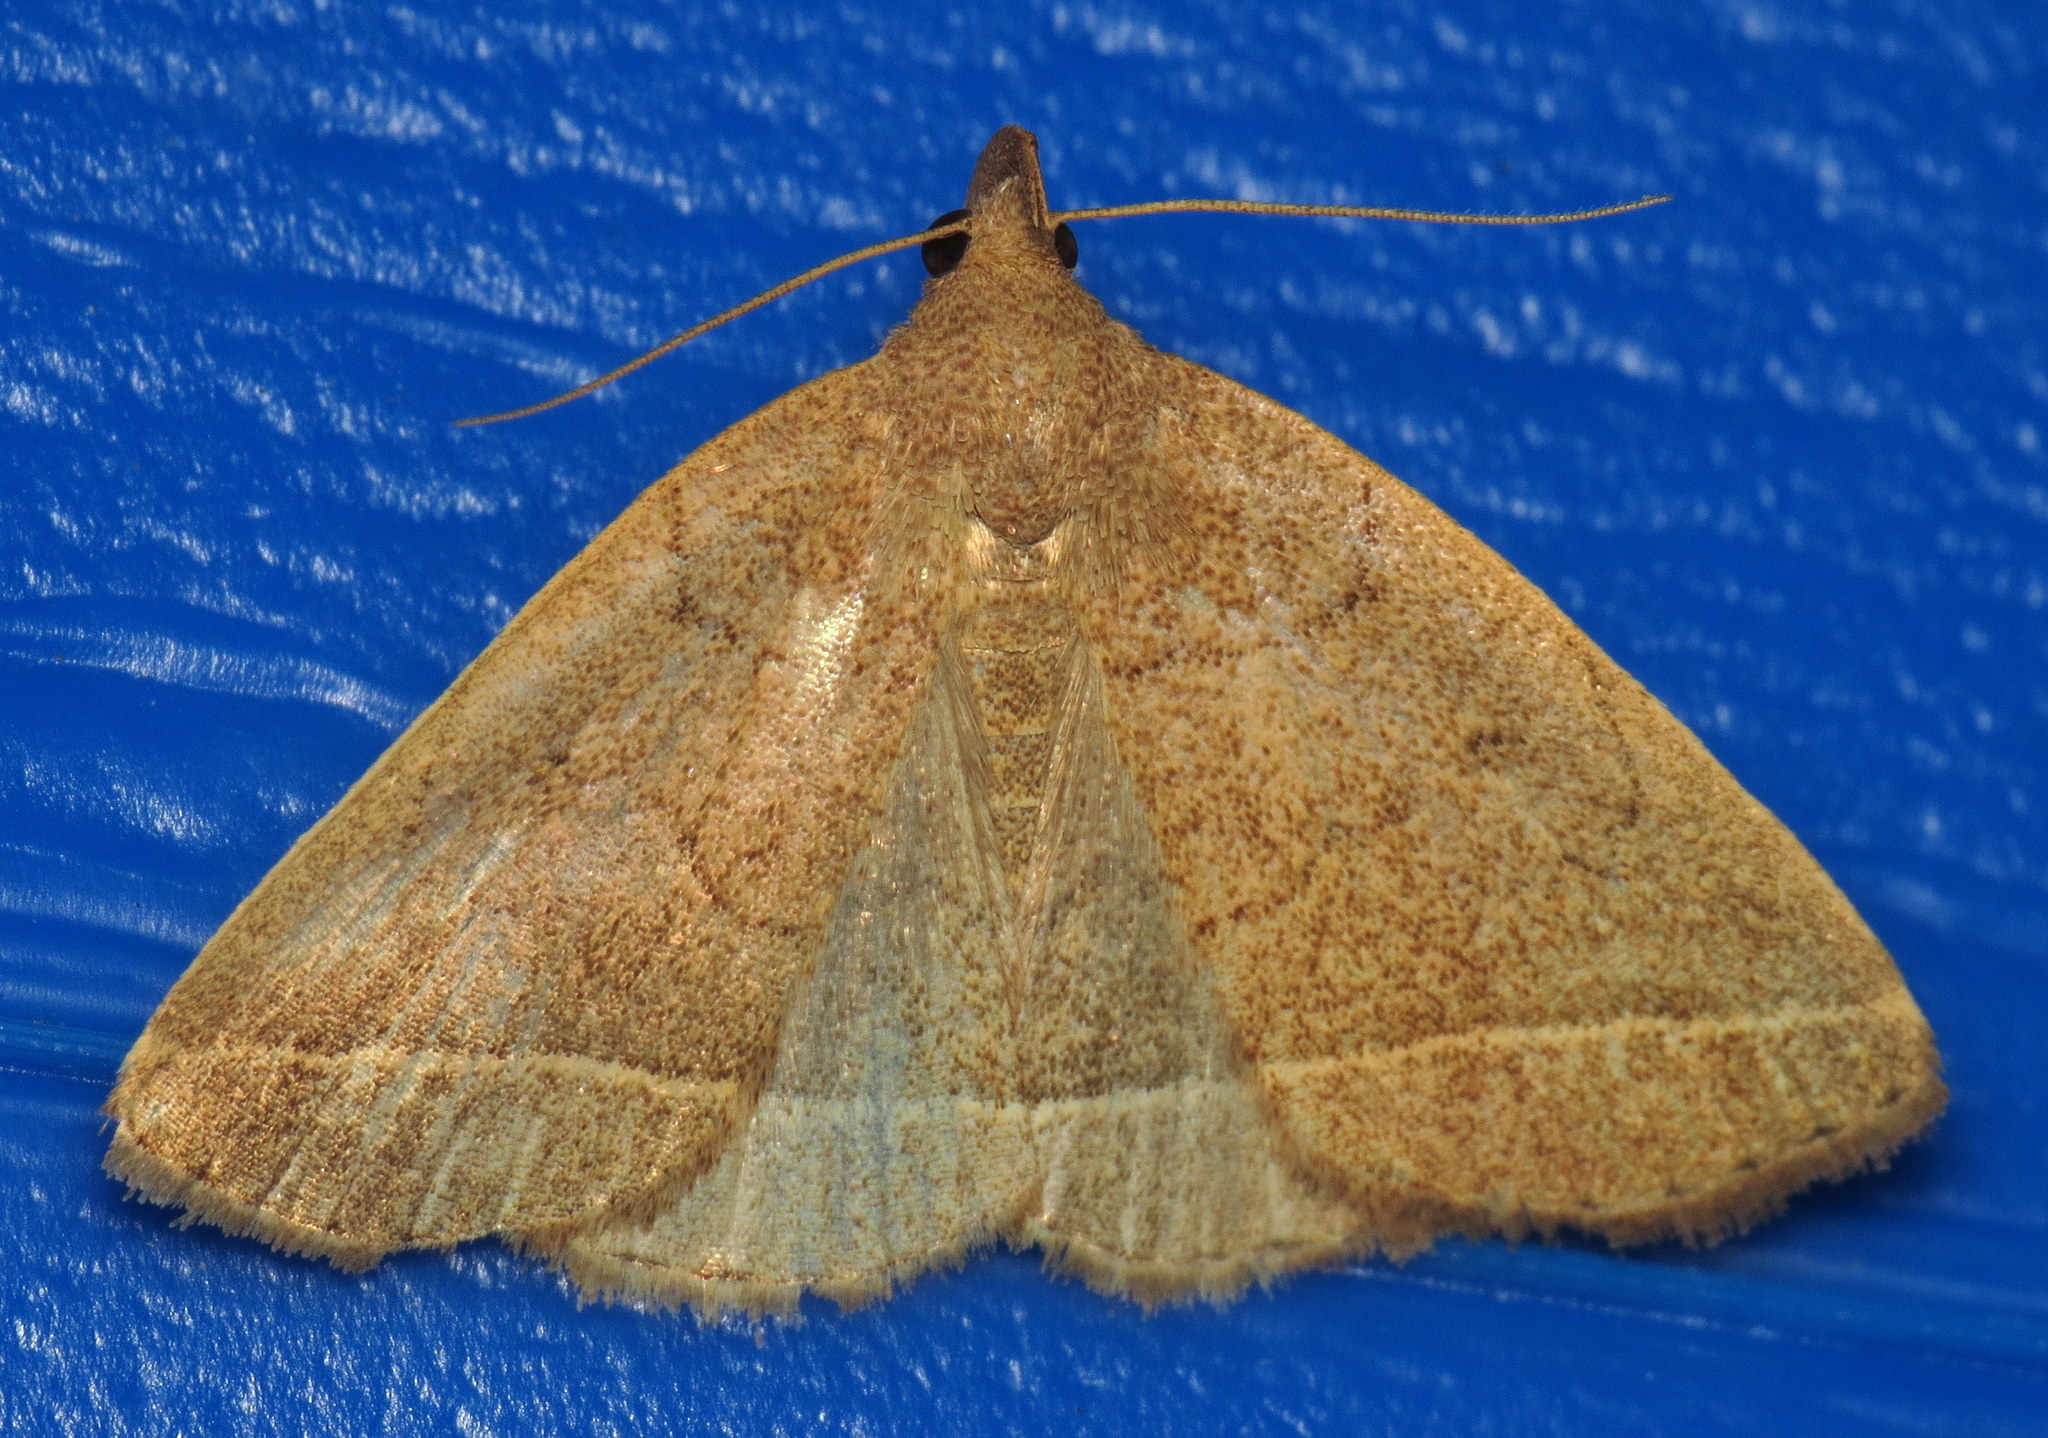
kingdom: Animalia
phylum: Arthropoda
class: Insecta
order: Lepidoptera
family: Erebidae
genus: Zanclognatha
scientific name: Zanclognatha marcidilinea
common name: Yellowish fan-foot
